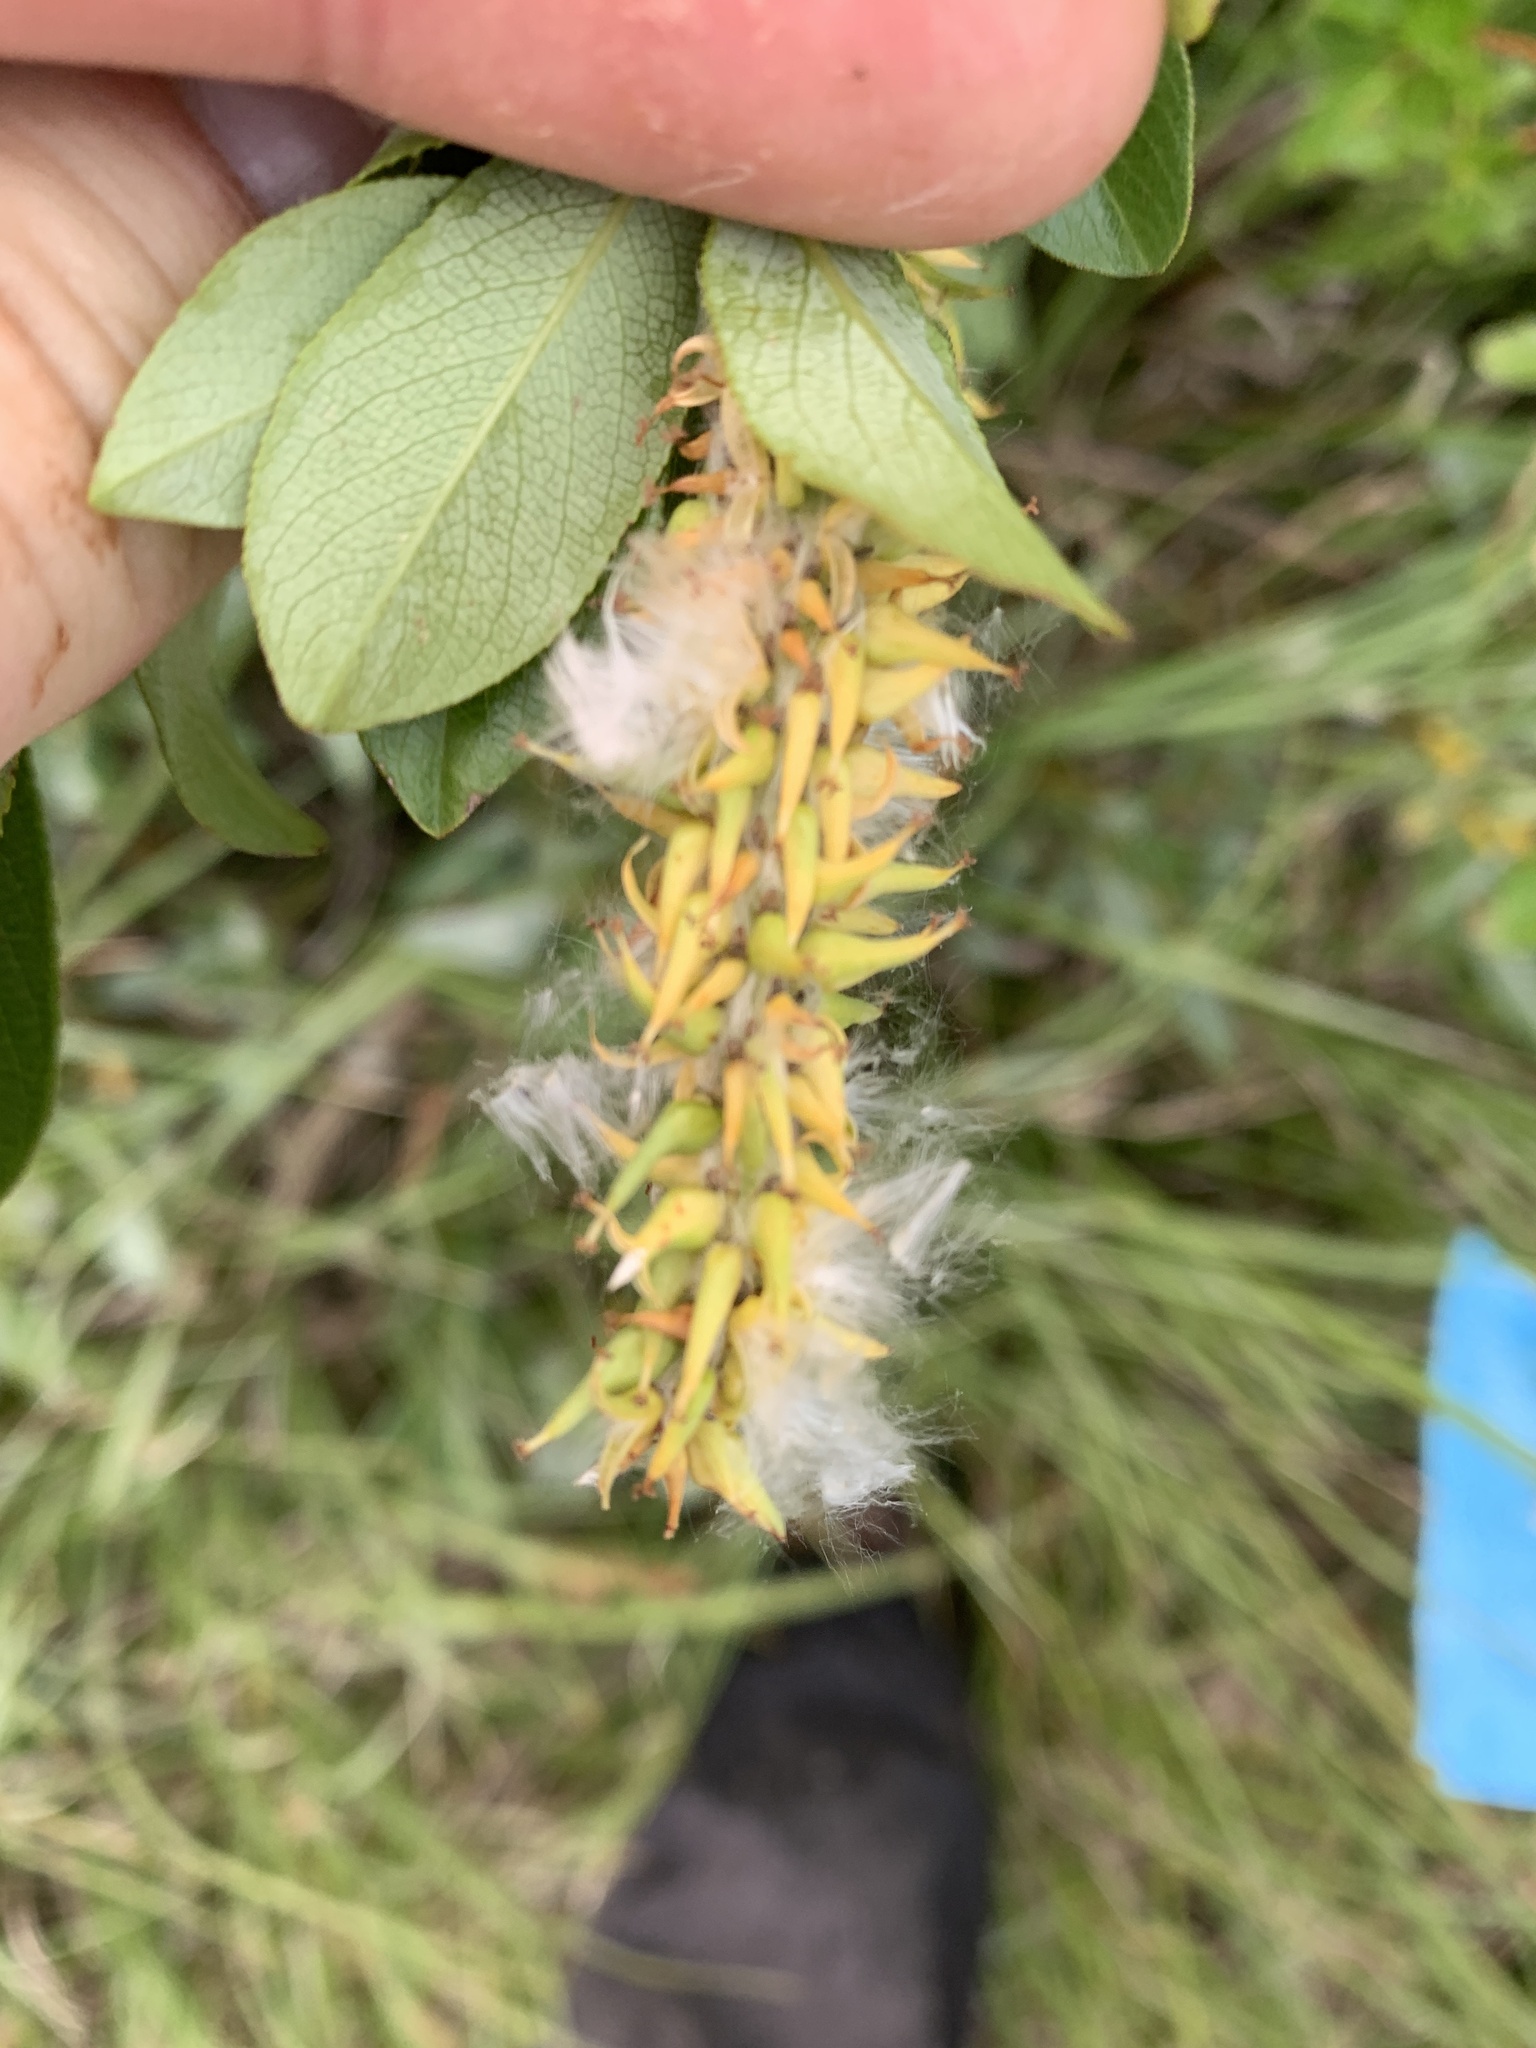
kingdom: Plantae
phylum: Tracheophyta
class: Magnoliopsida
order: Malpighiales
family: Salicaceae
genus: Salix
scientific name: Salix barclayi
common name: Mountain willow
